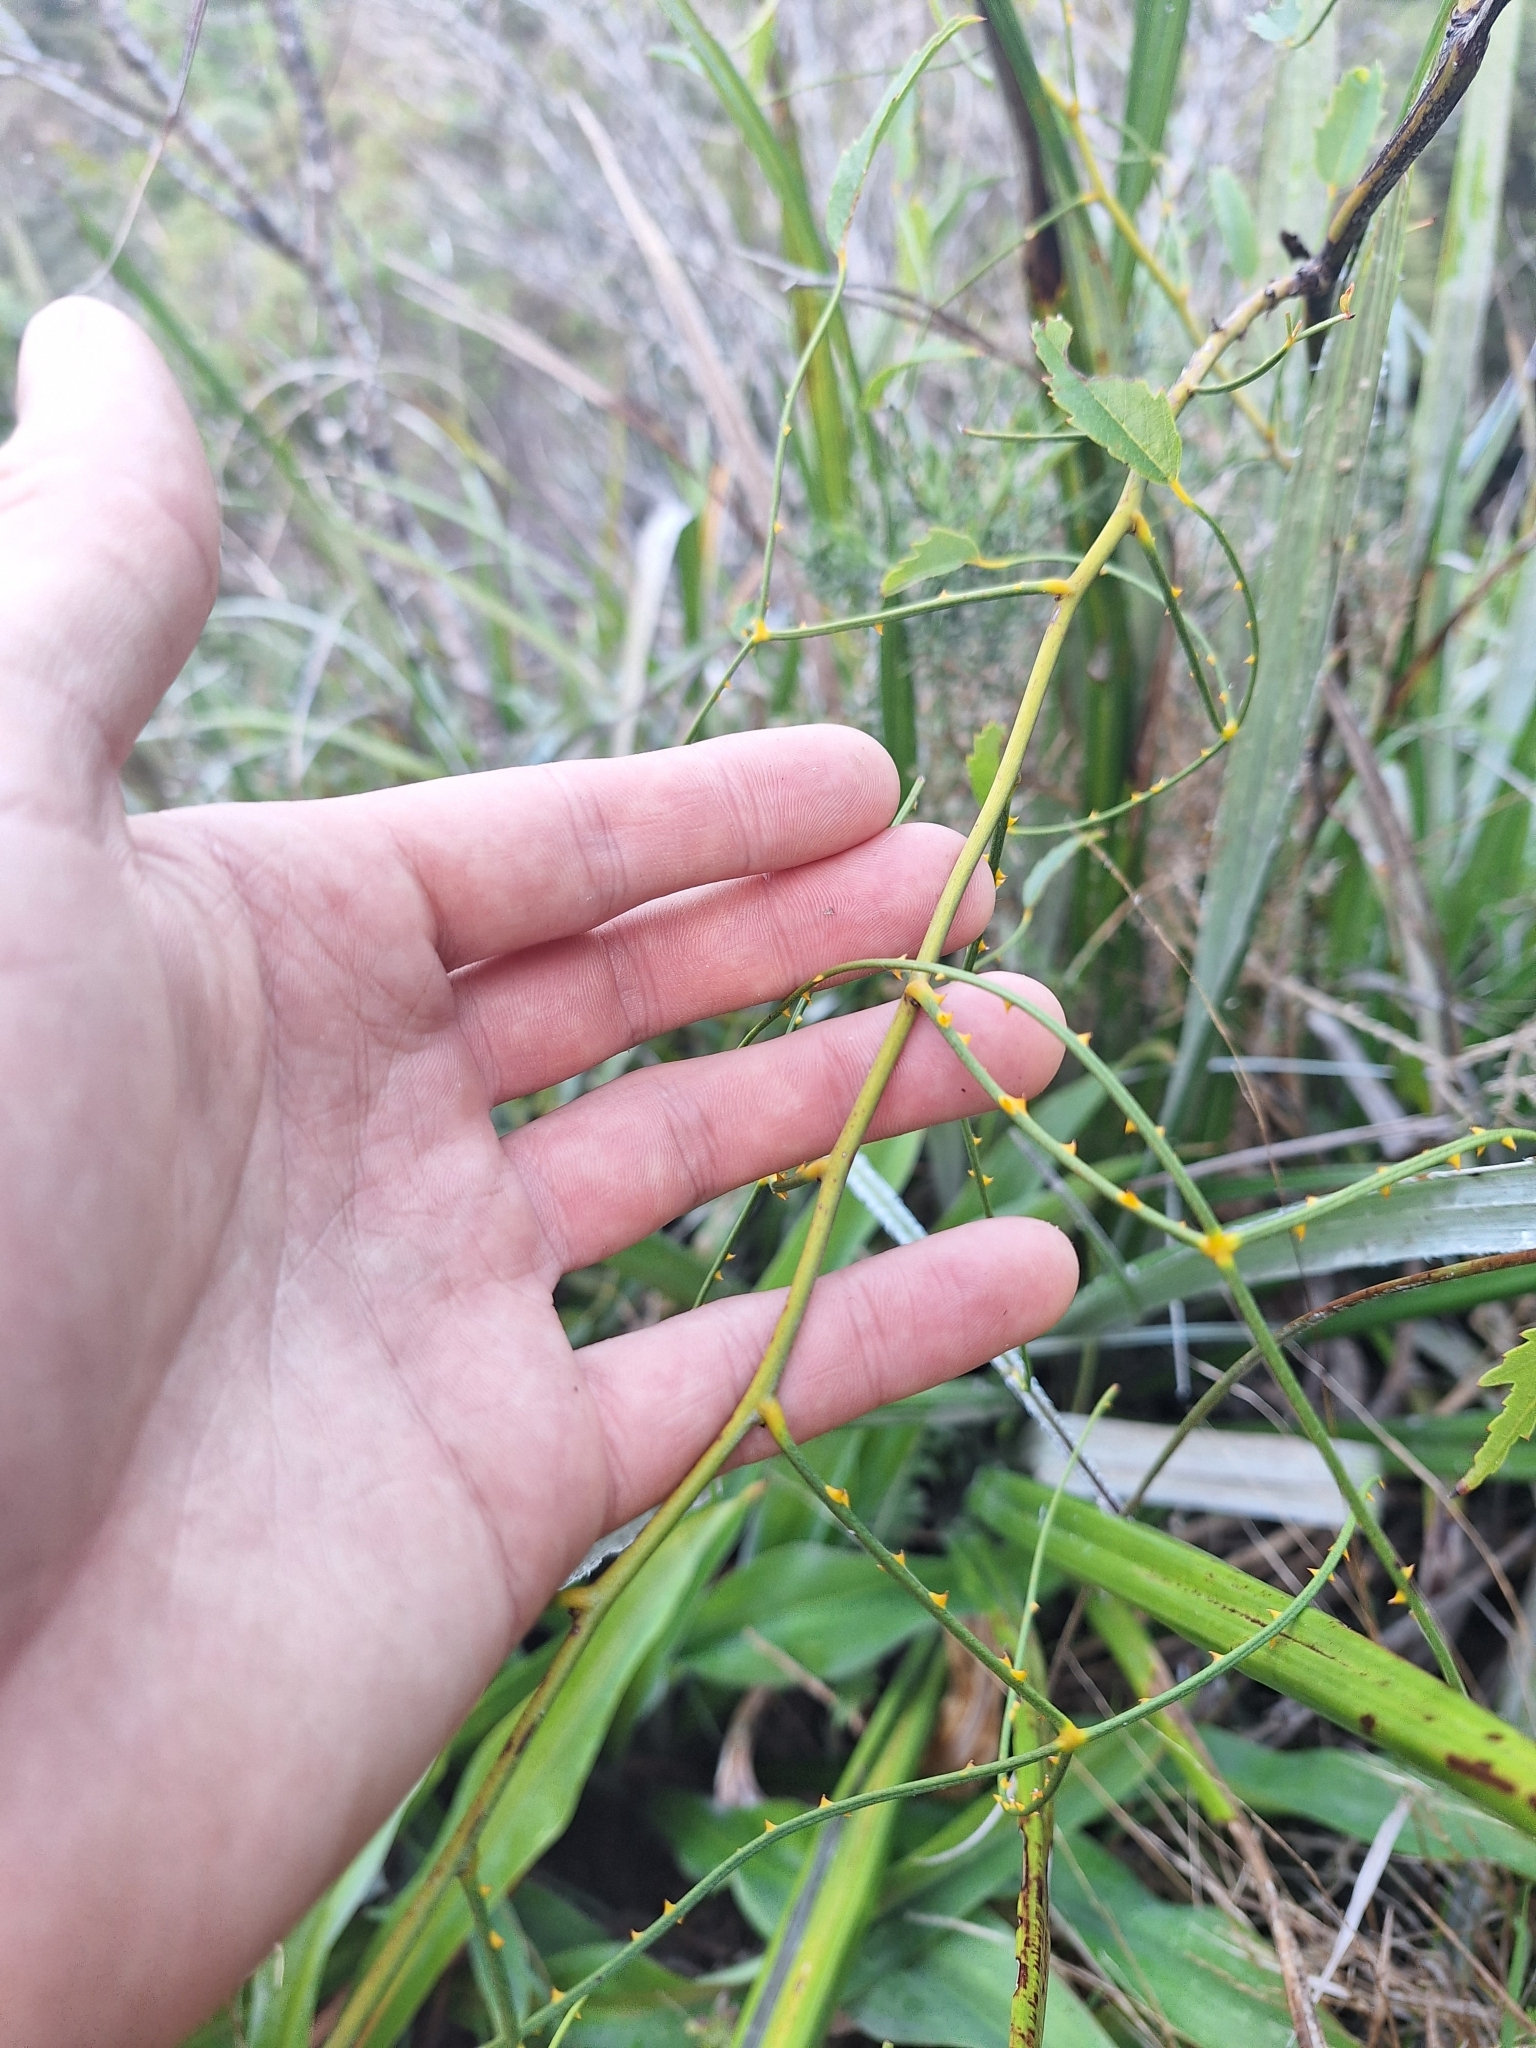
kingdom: Plantae
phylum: Tracheophyta
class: Magnoliopsida
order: Rosales
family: Rosaceae
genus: Rubus
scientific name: Rubus squarrosus
